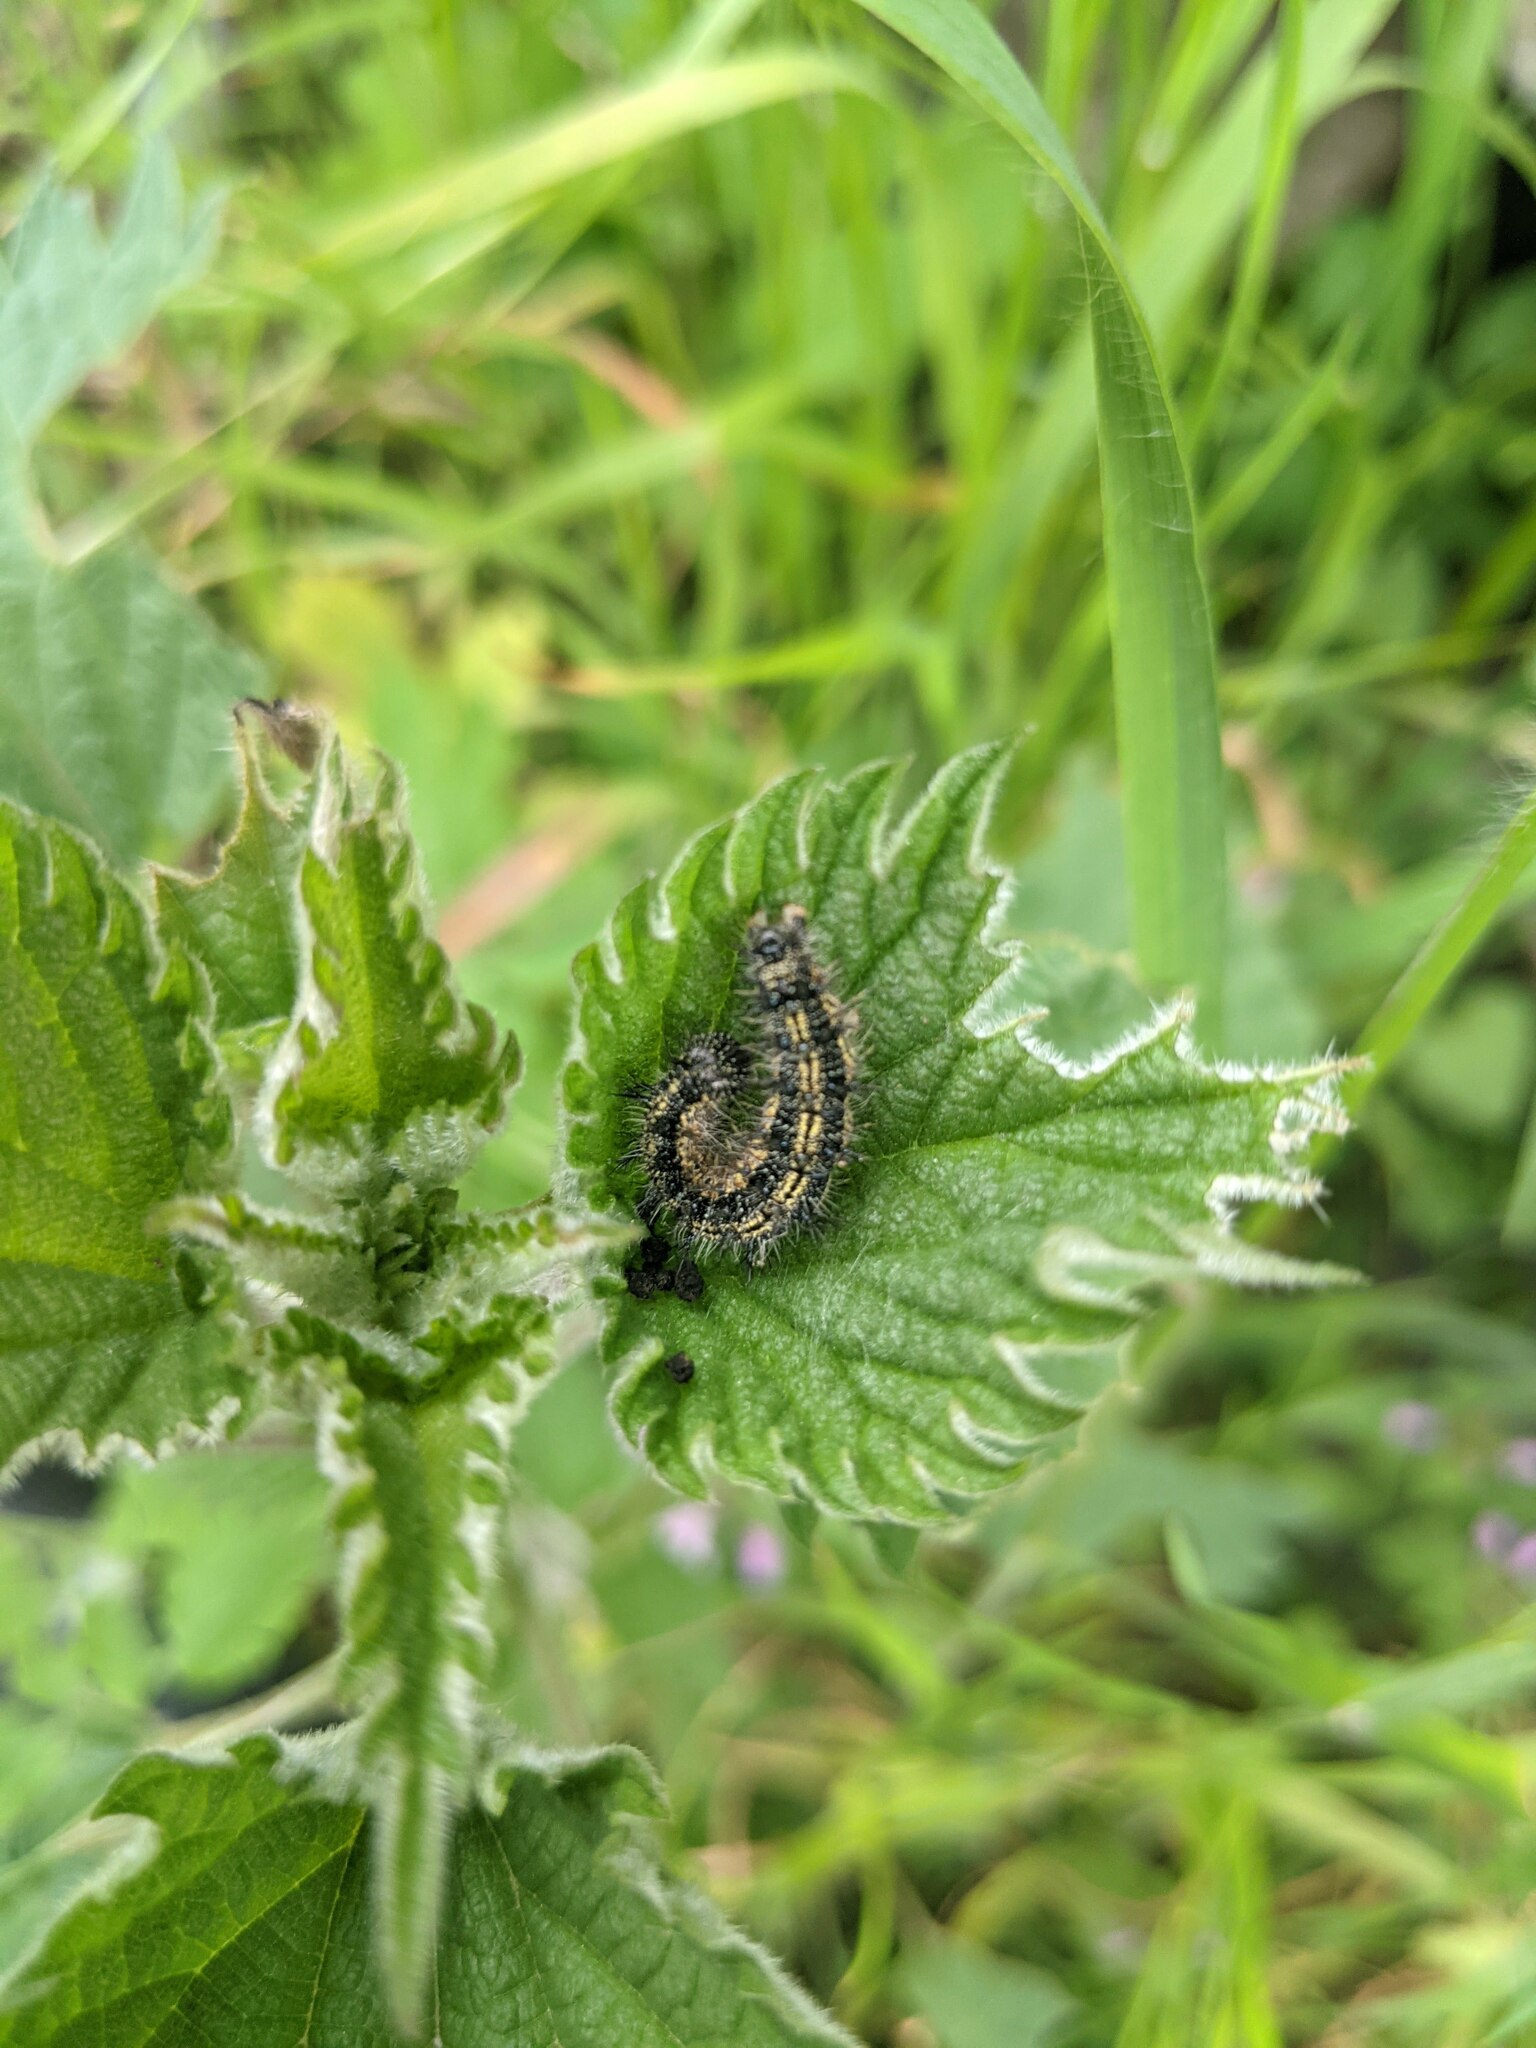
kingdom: Animalia
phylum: Arthropoda
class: Insecta
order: Lepidoptera
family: Nymphalidae
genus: Aglais
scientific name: Aglais urticae
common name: Small tortoiseshell
